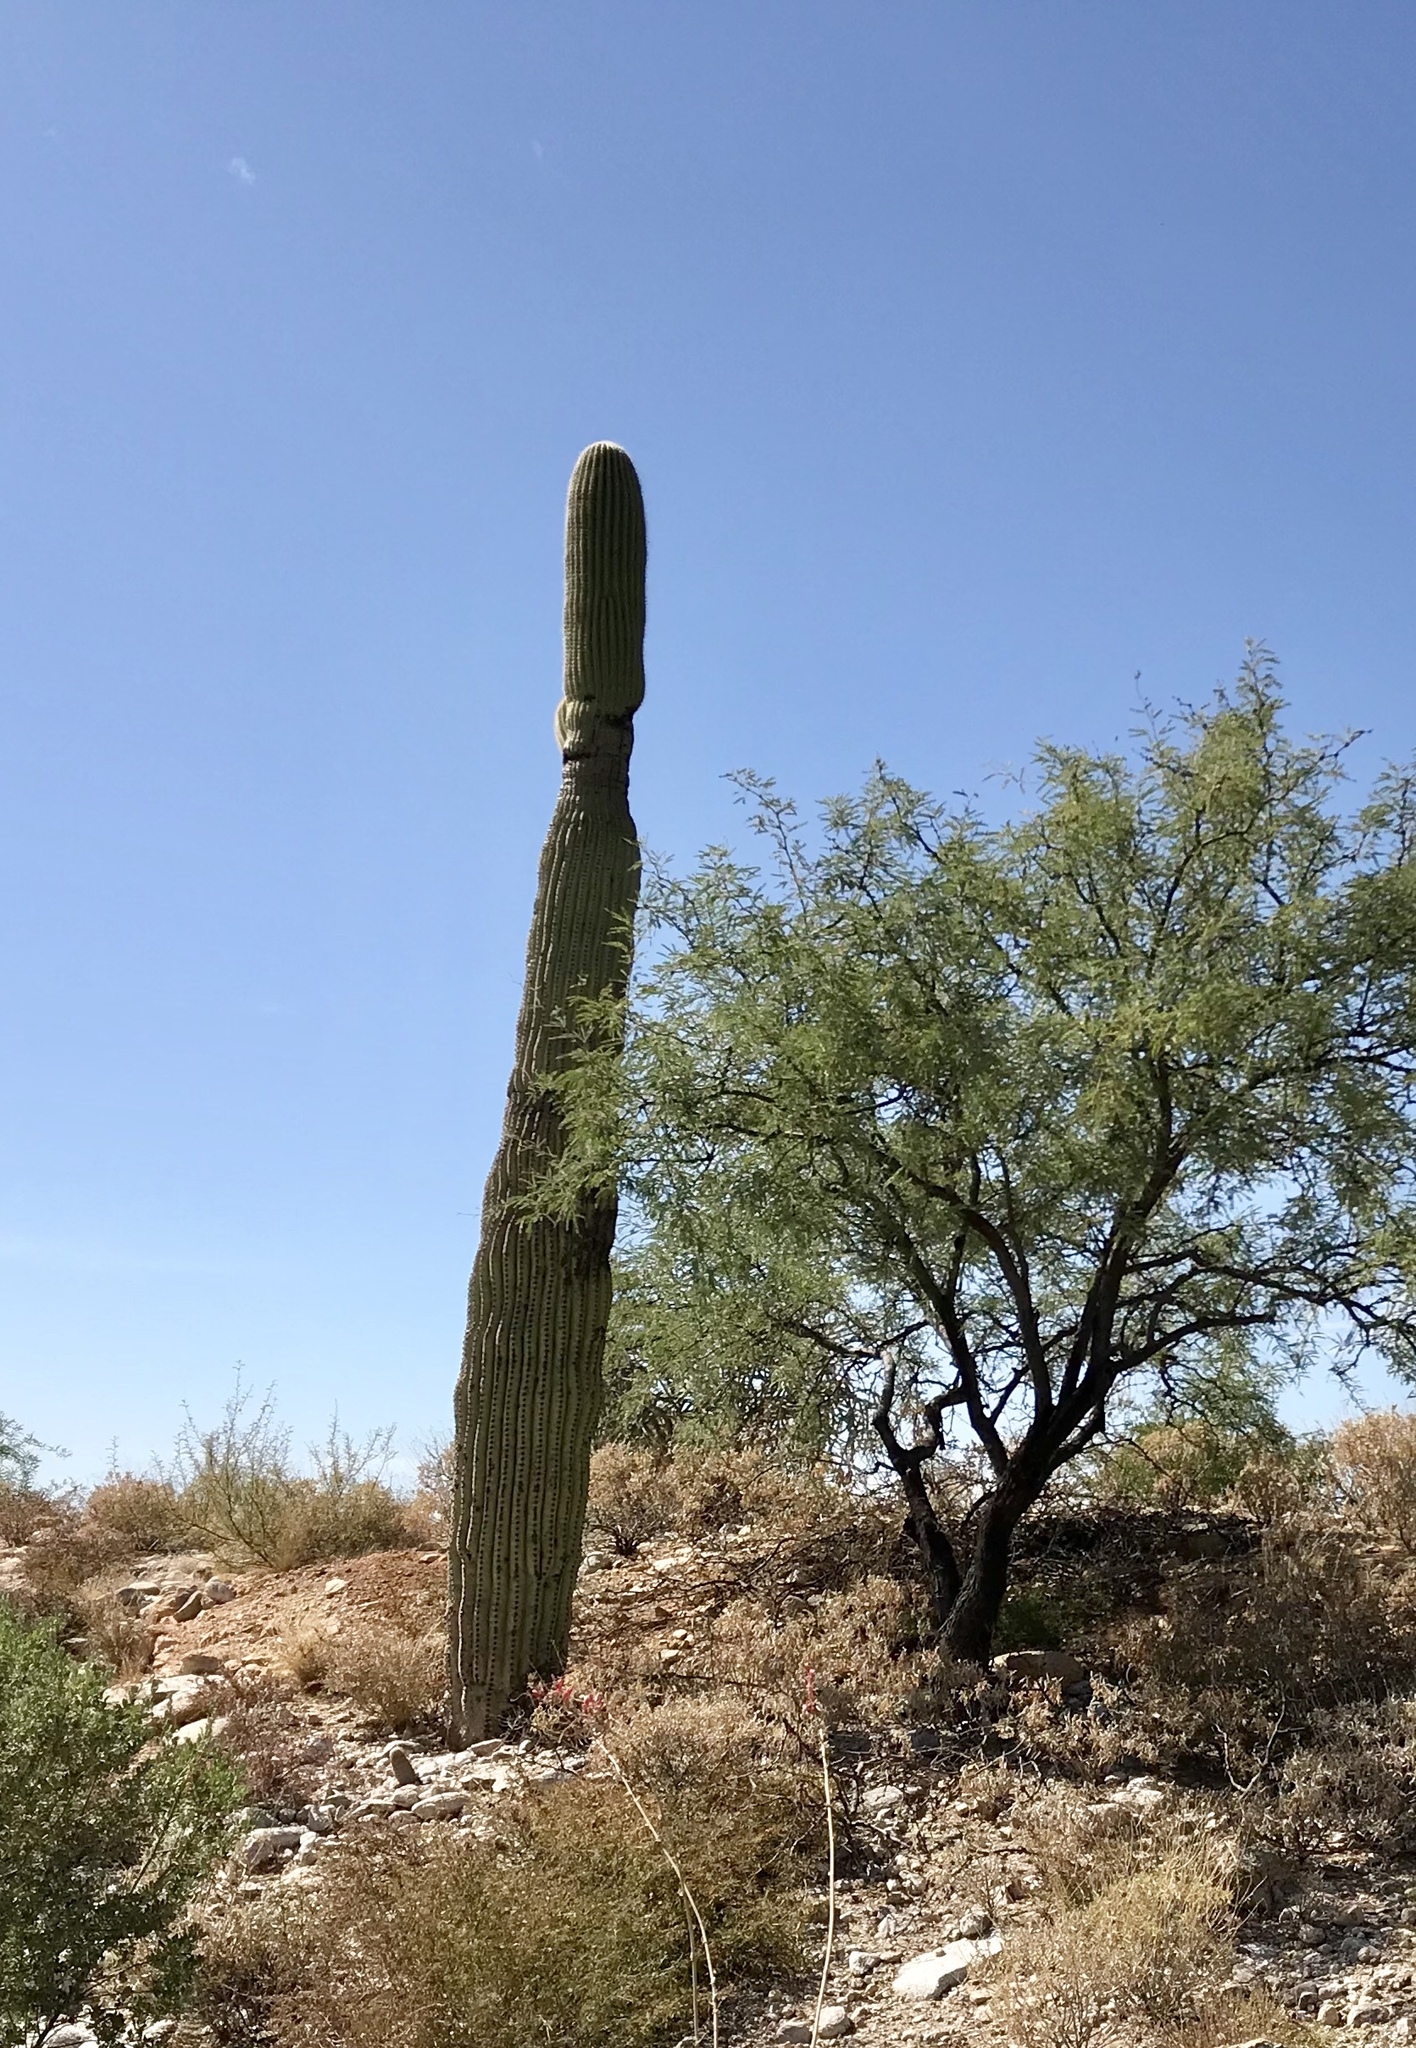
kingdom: Plantae
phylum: Tracheophyta
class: Magnoliopsida
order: Caryophyllales
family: Cactaceae
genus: Carnegiea
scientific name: Carnegiea gigantea
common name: Saguaro
